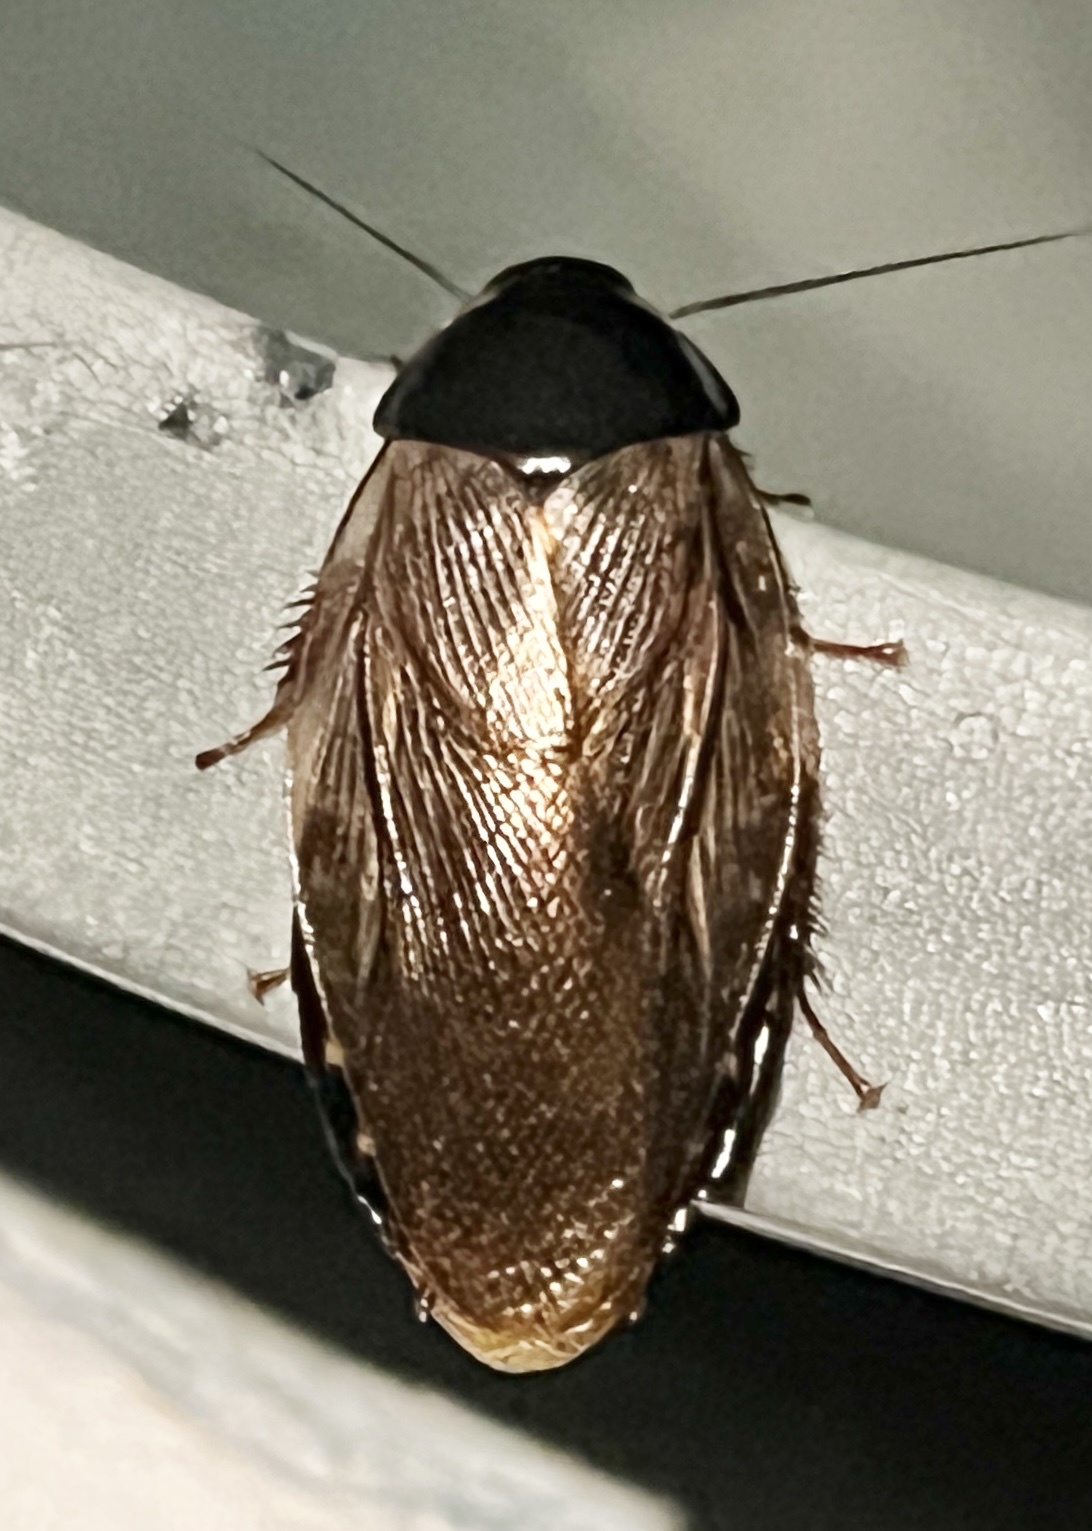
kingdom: Animalia
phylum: Arthropoda
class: Insecta
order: Blattodea
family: Blaberidae
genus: Pycnoscelus
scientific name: Pycnoscelus surinamensis
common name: Surinam cockroach
